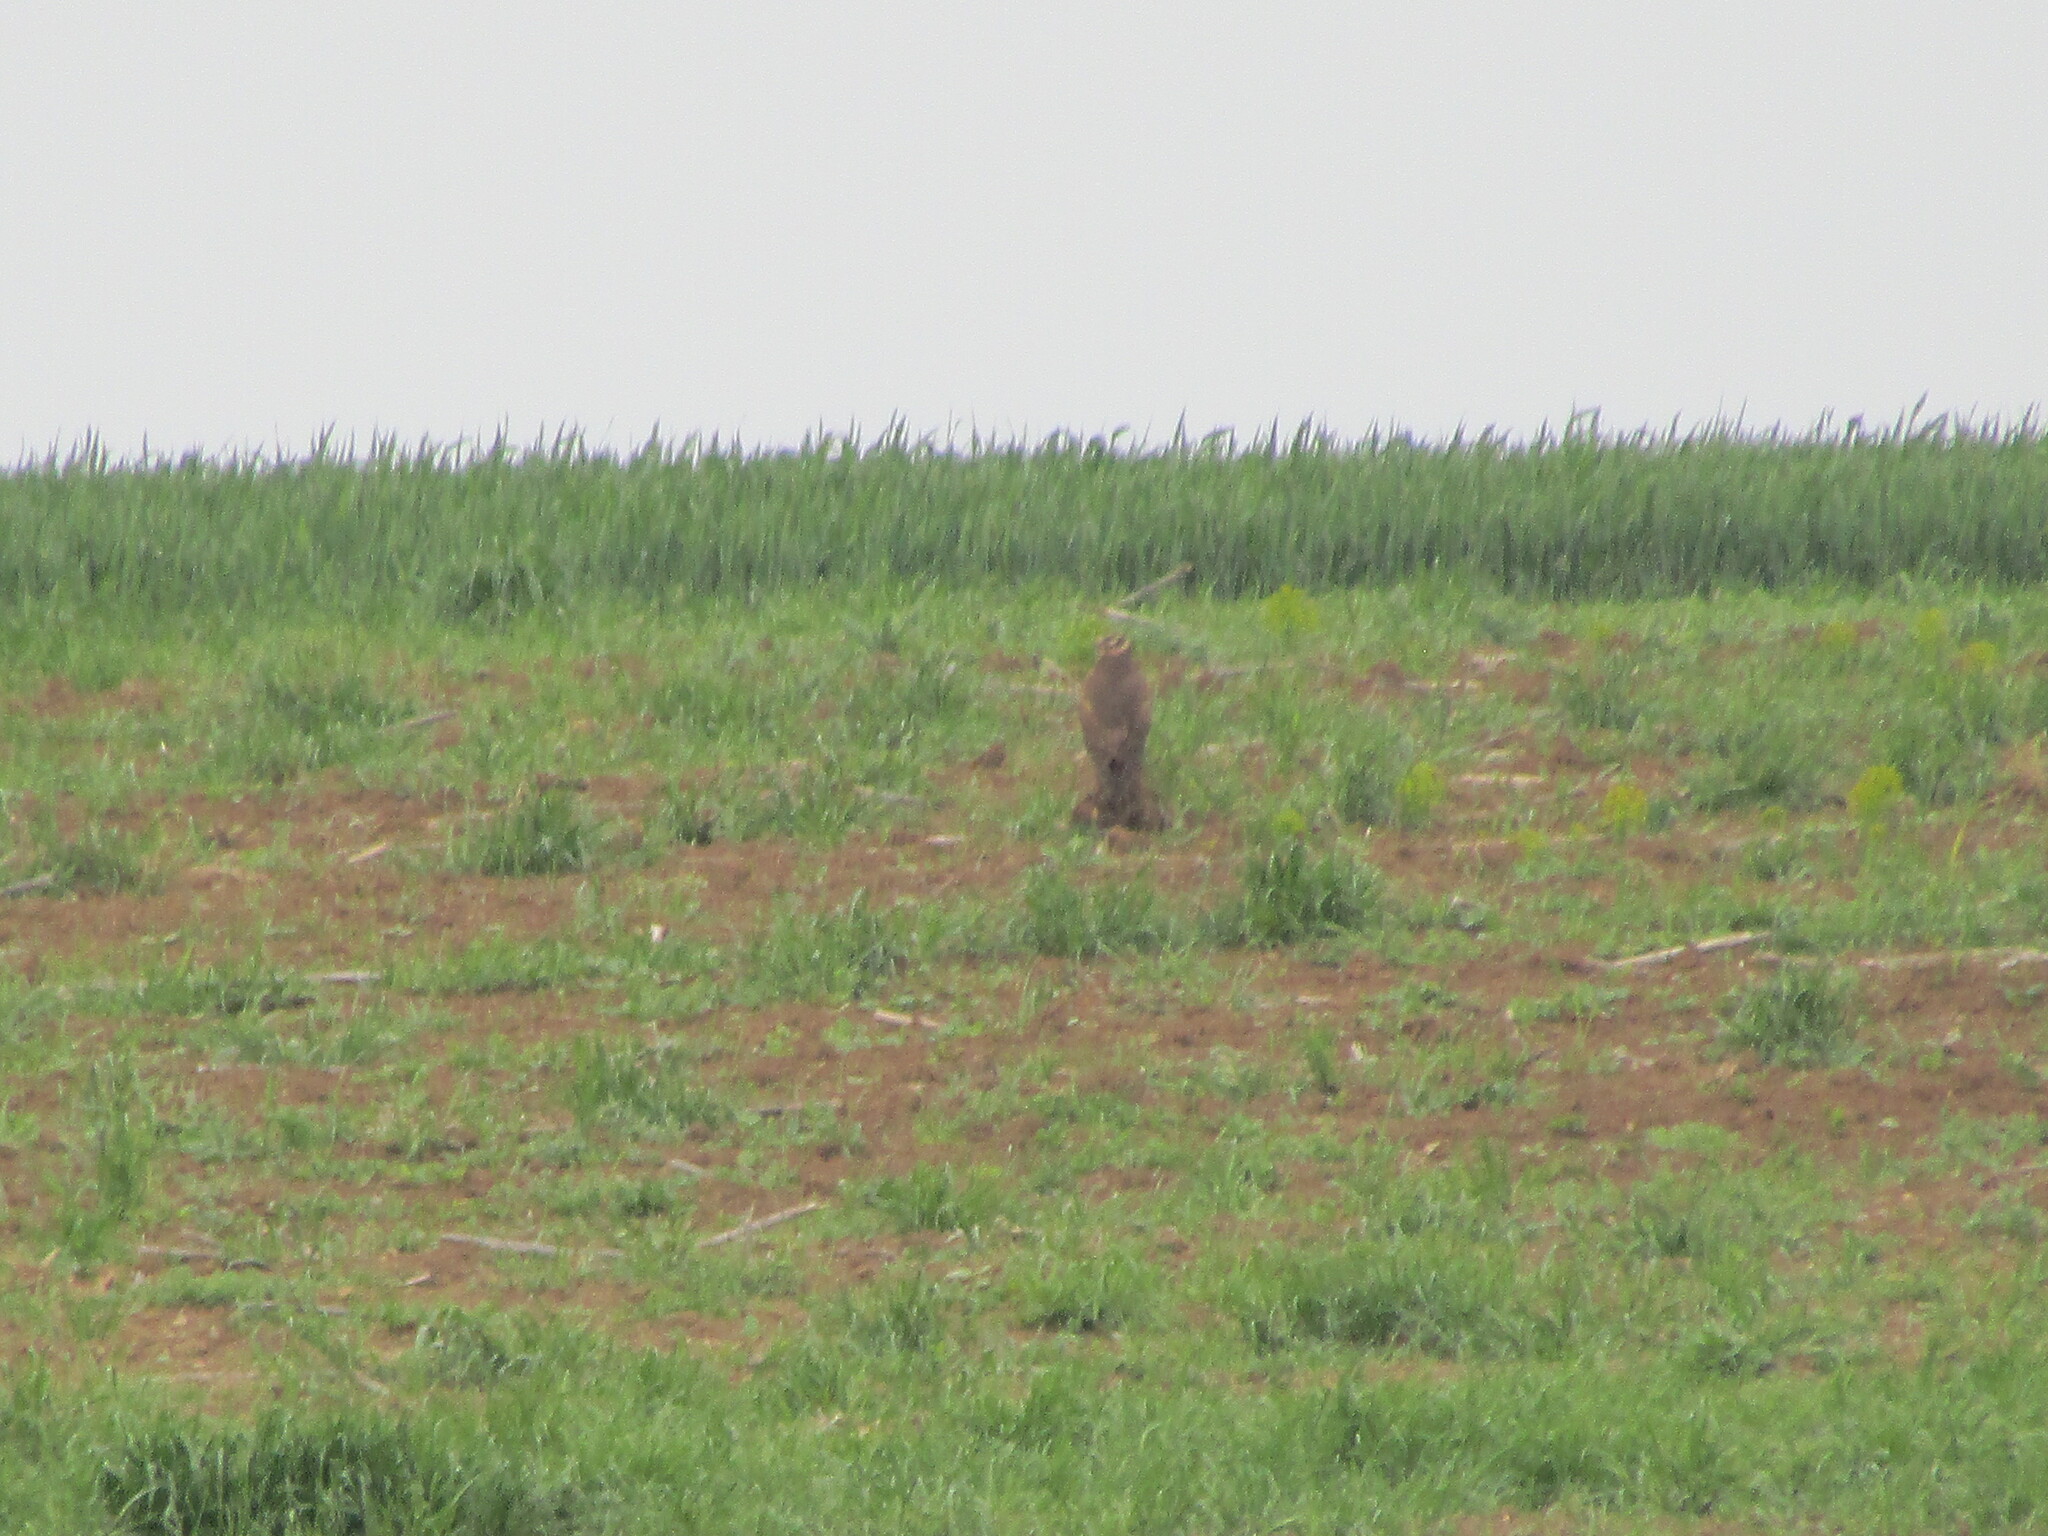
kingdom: Animalia
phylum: Chordata
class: Aves
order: Accipitriformes
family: Accipitridae
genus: Circus
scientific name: Circus macrourus
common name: Pallid harrier
